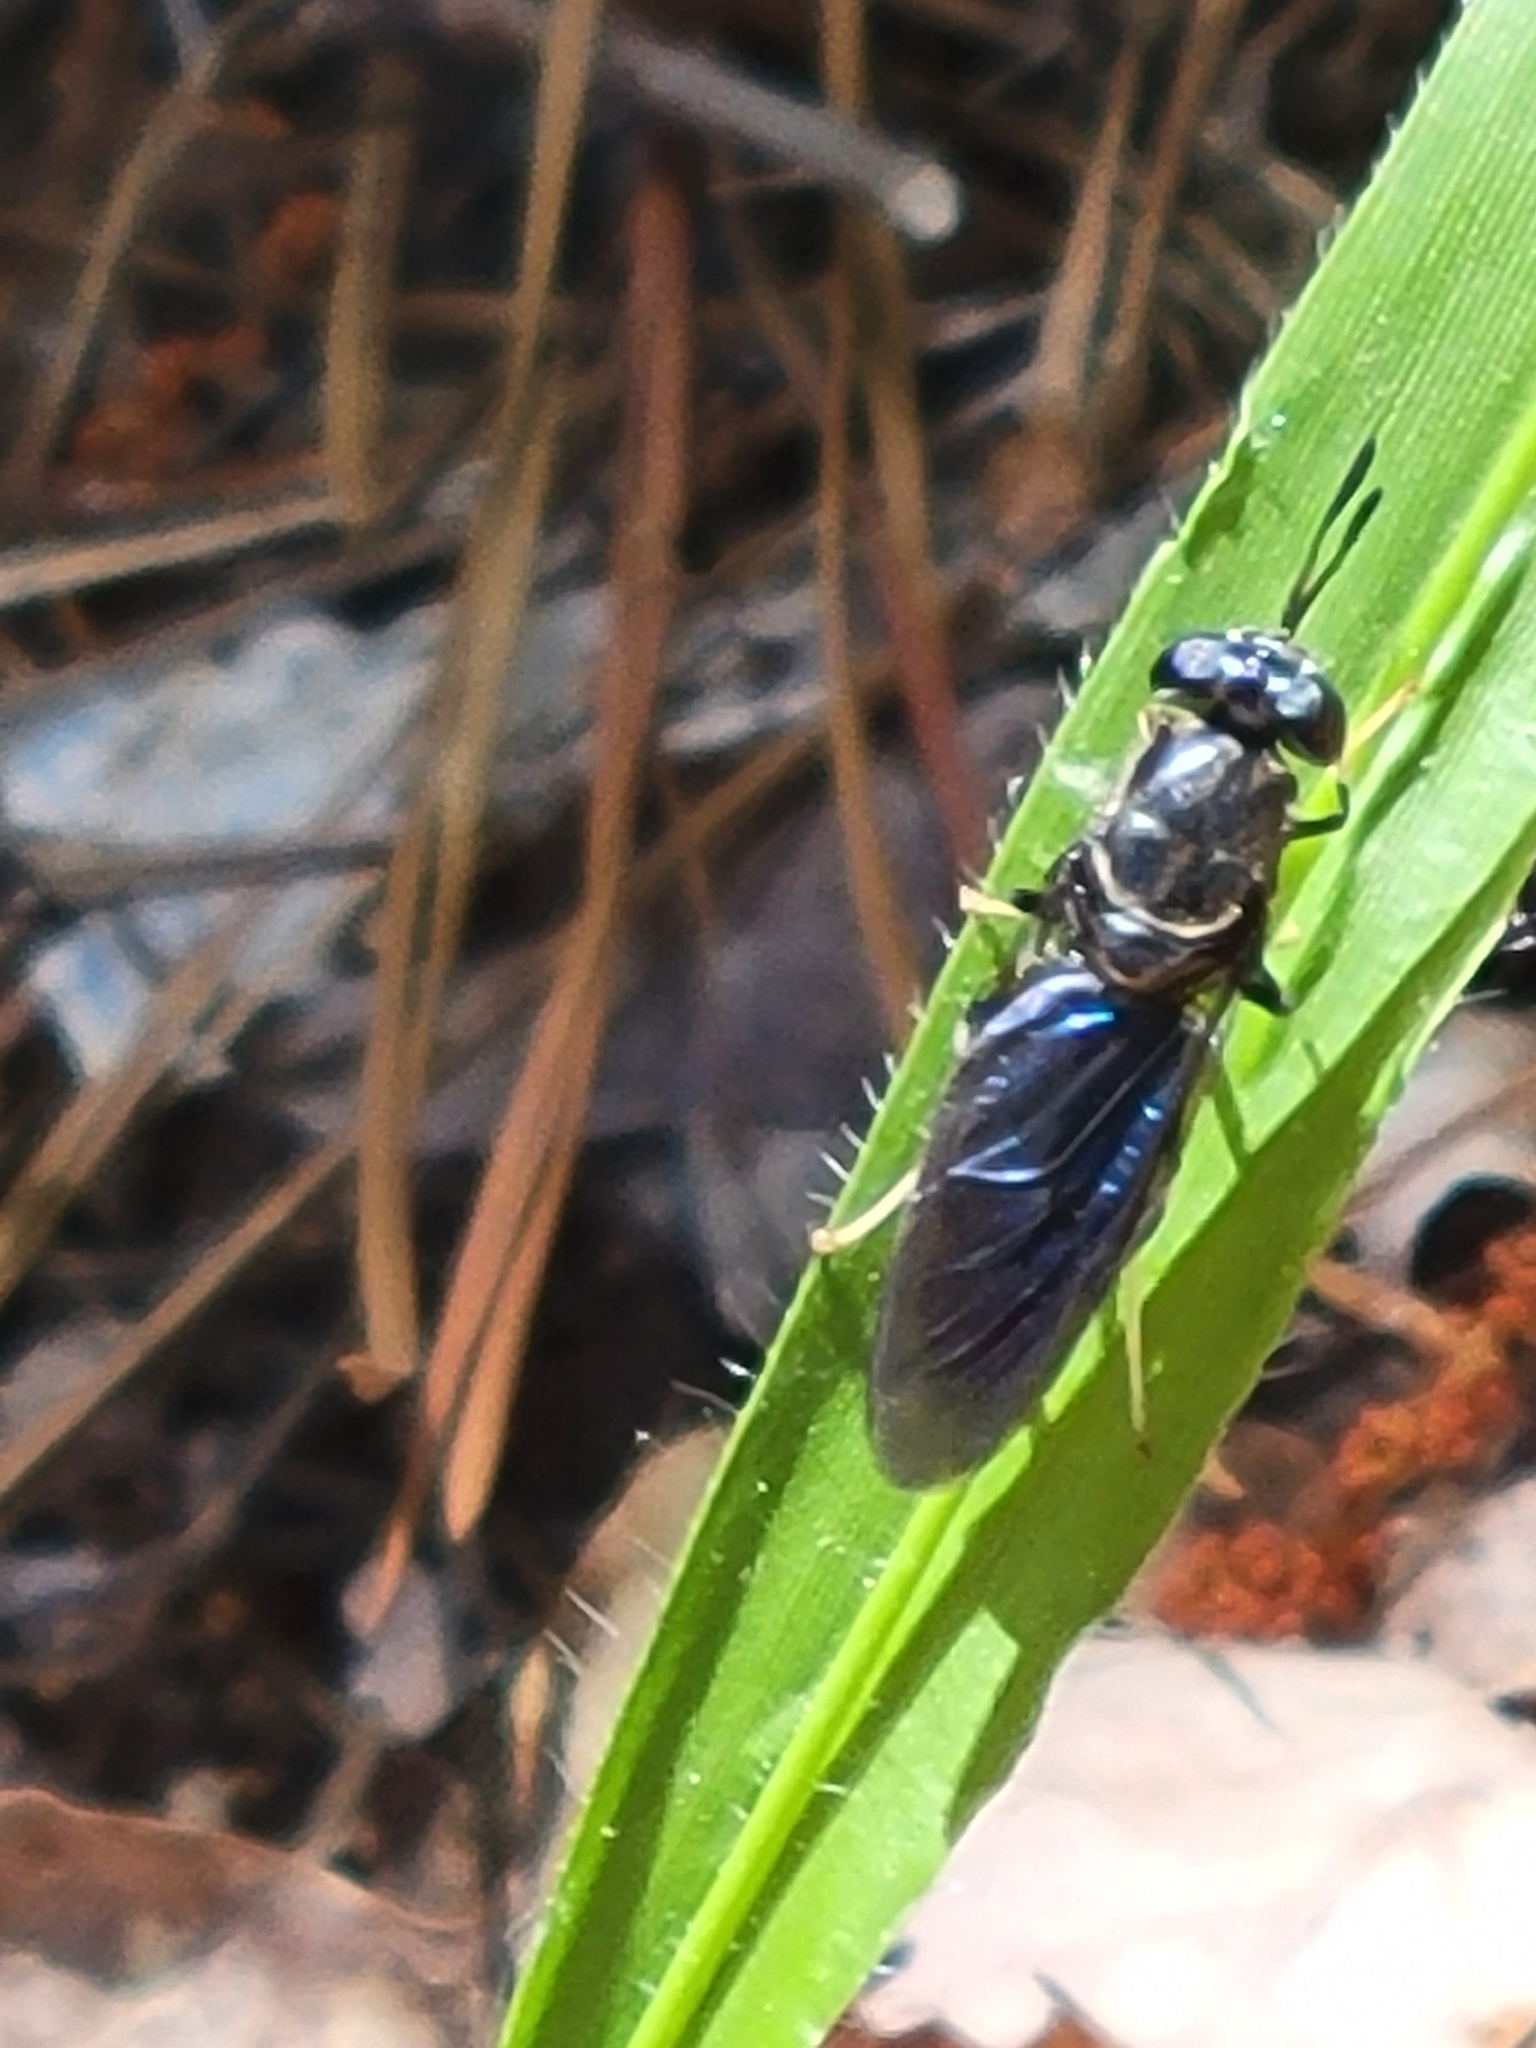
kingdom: Animalia
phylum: Arthropoda
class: Insecta
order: Diptera
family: Stratiomyidae
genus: Hermetia
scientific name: Hermetia illucens
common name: Black soldier fly
